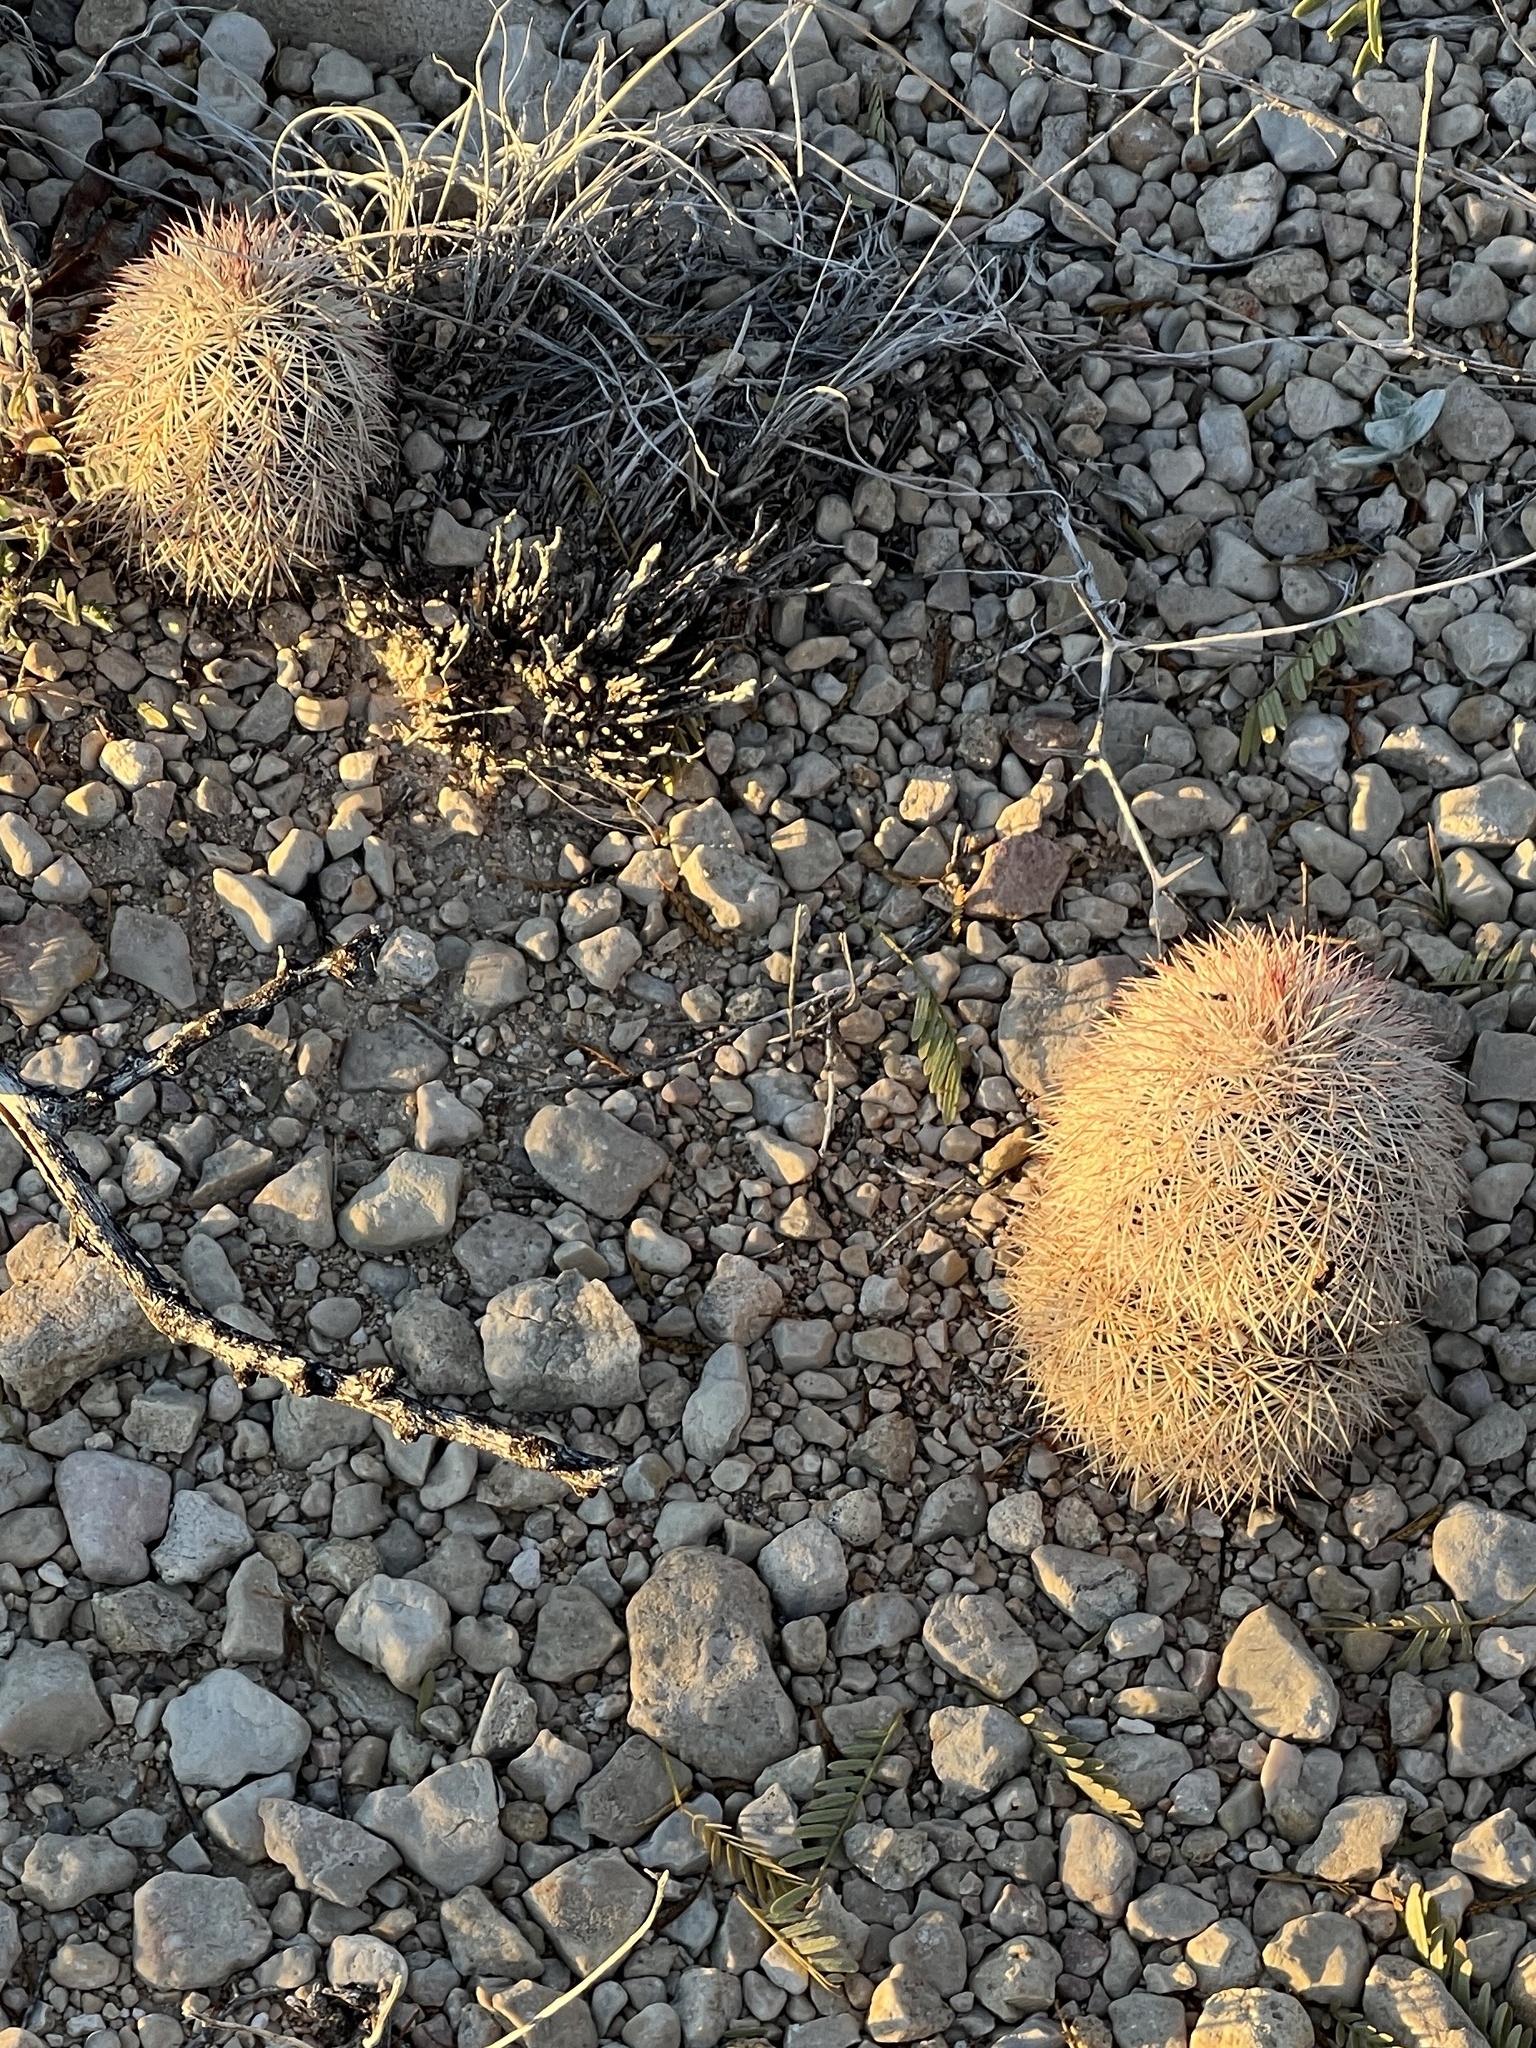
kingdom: Plantae
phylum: Tracheophyta
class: Magnoliopsida
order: Caryophyllales
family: Cactaceae
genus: Echinocereus
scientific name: Echinocereus dasyacanthus
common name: Spiny hedgehog cactus
